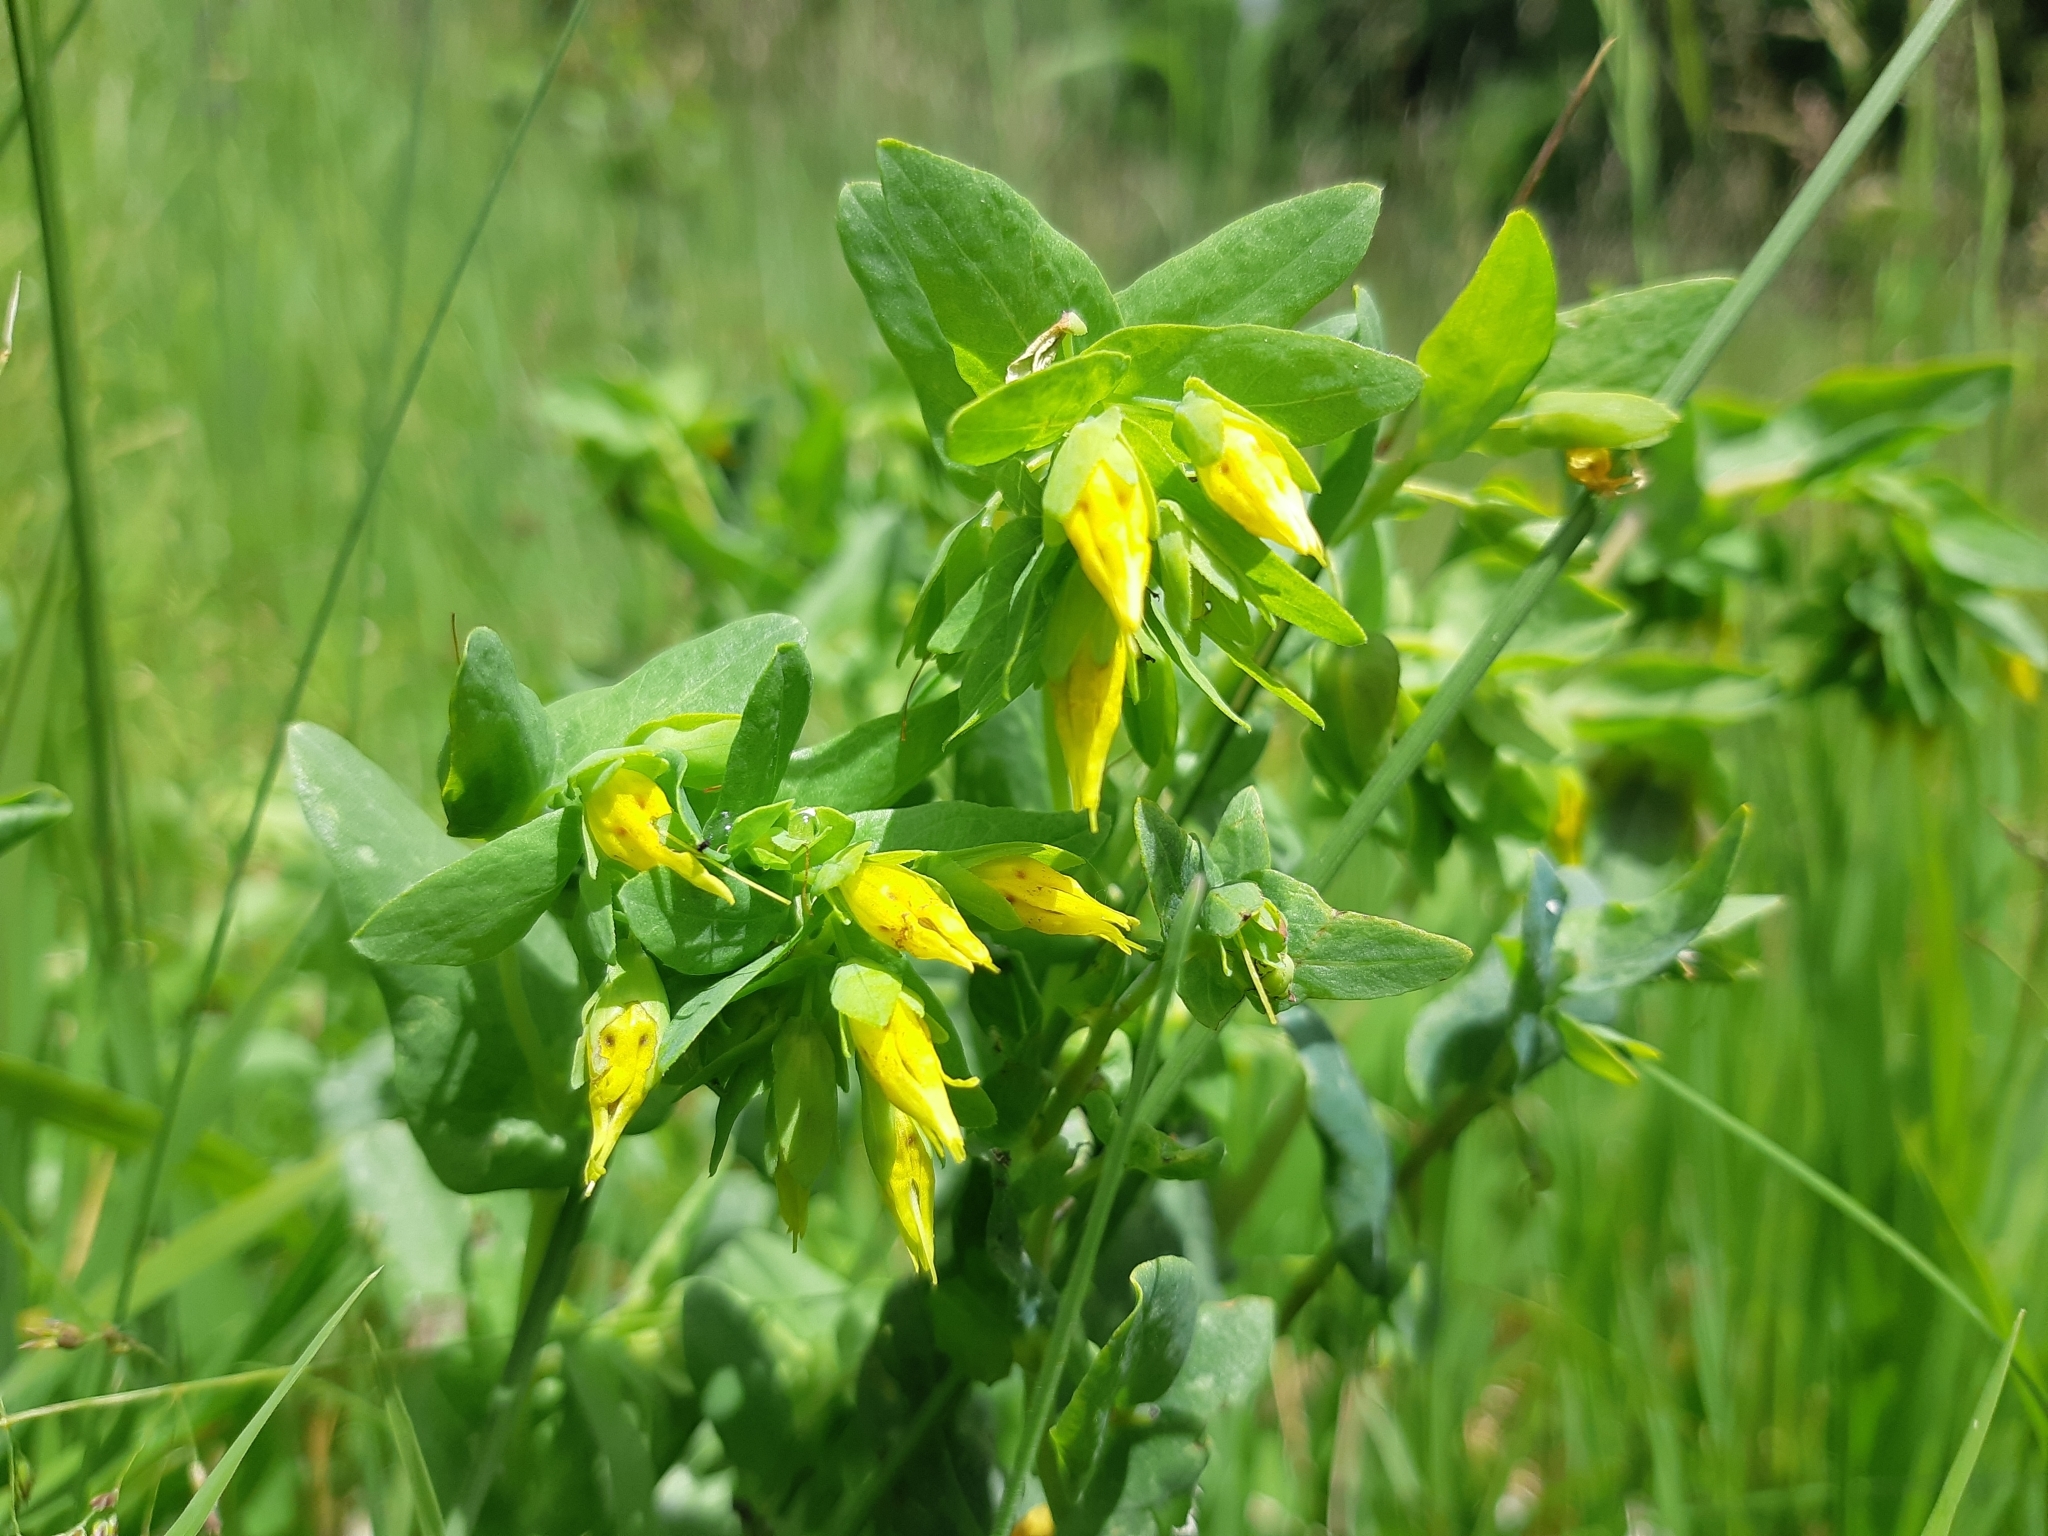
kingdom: Plantae
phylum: Tracheophyta
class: Magnoliopsida
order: Boraginales
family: Boraginaceae
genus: Cerinthe
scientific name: Cerinthe minor
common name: Lesser honeywort
